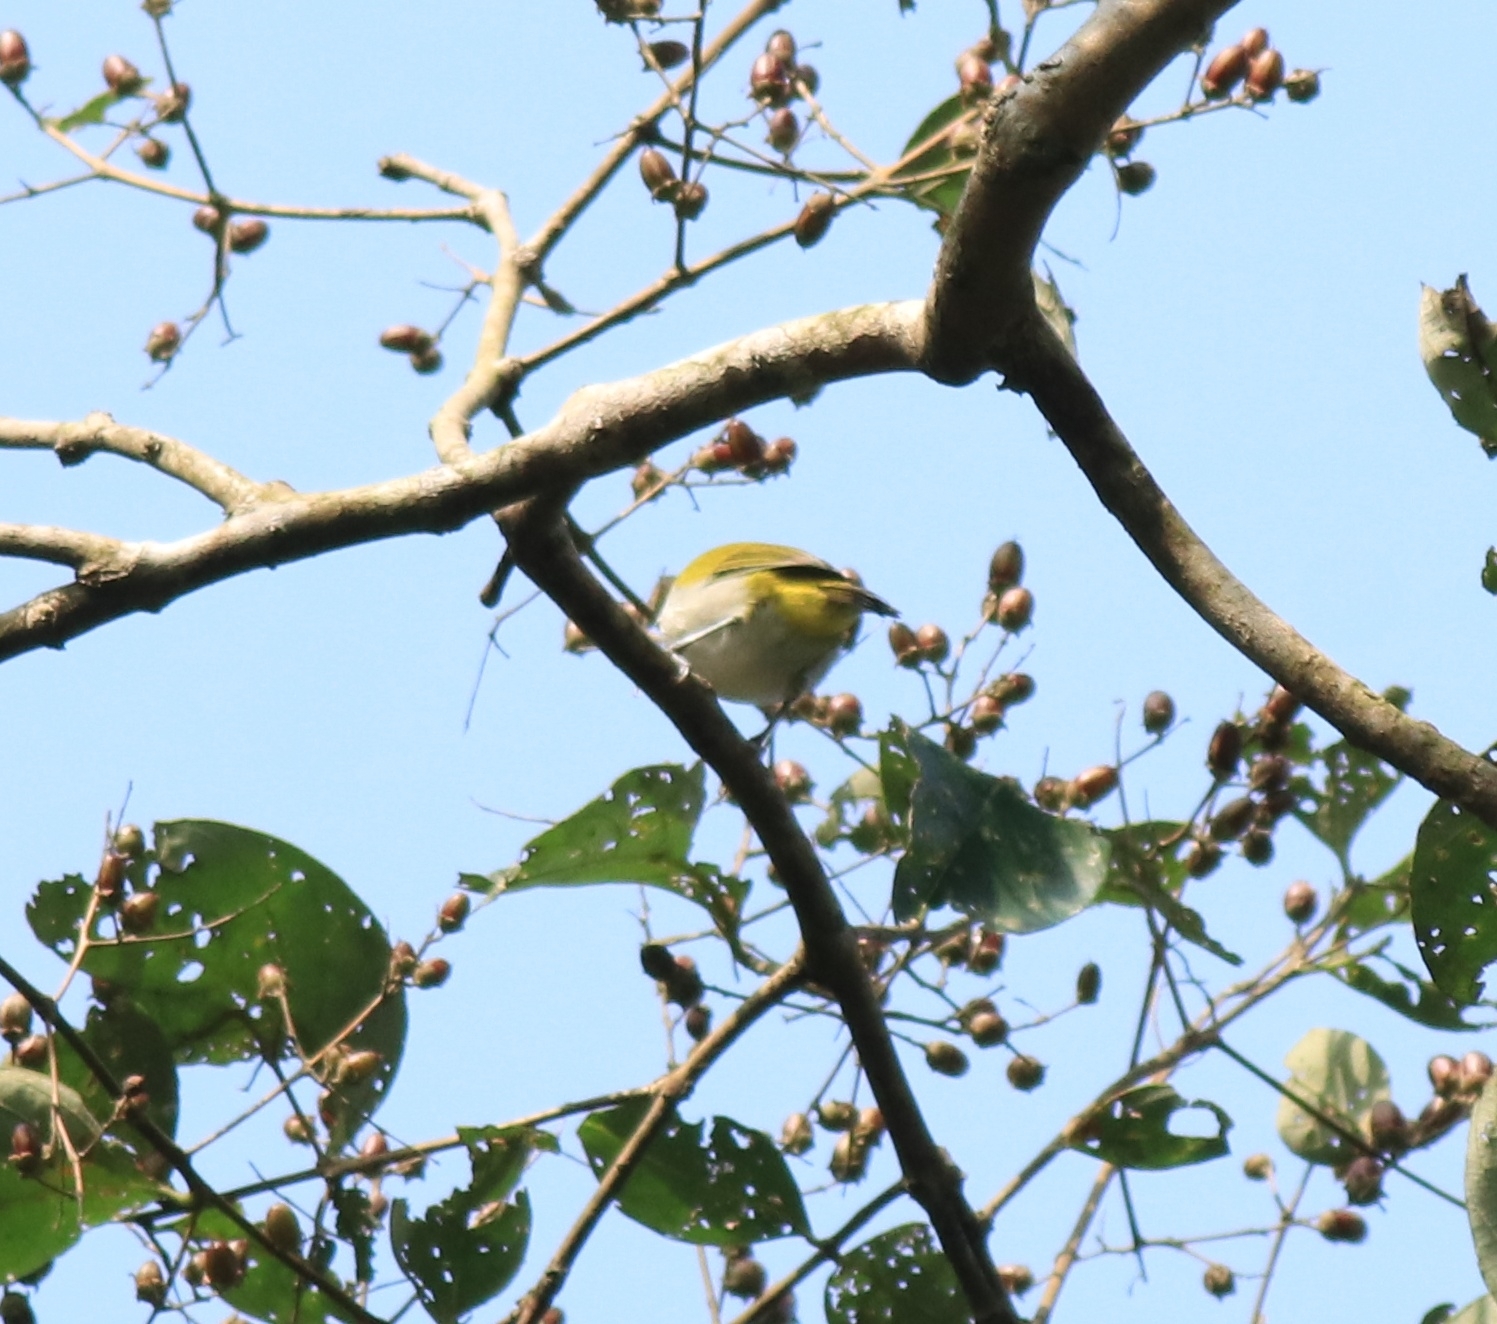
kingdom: Animalia
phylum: Chordata
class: Aves
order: Passeriformes
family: Zosteropidae
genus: Zosterops
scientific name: Zosterops palpebrosus
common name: Oriental white-eye
